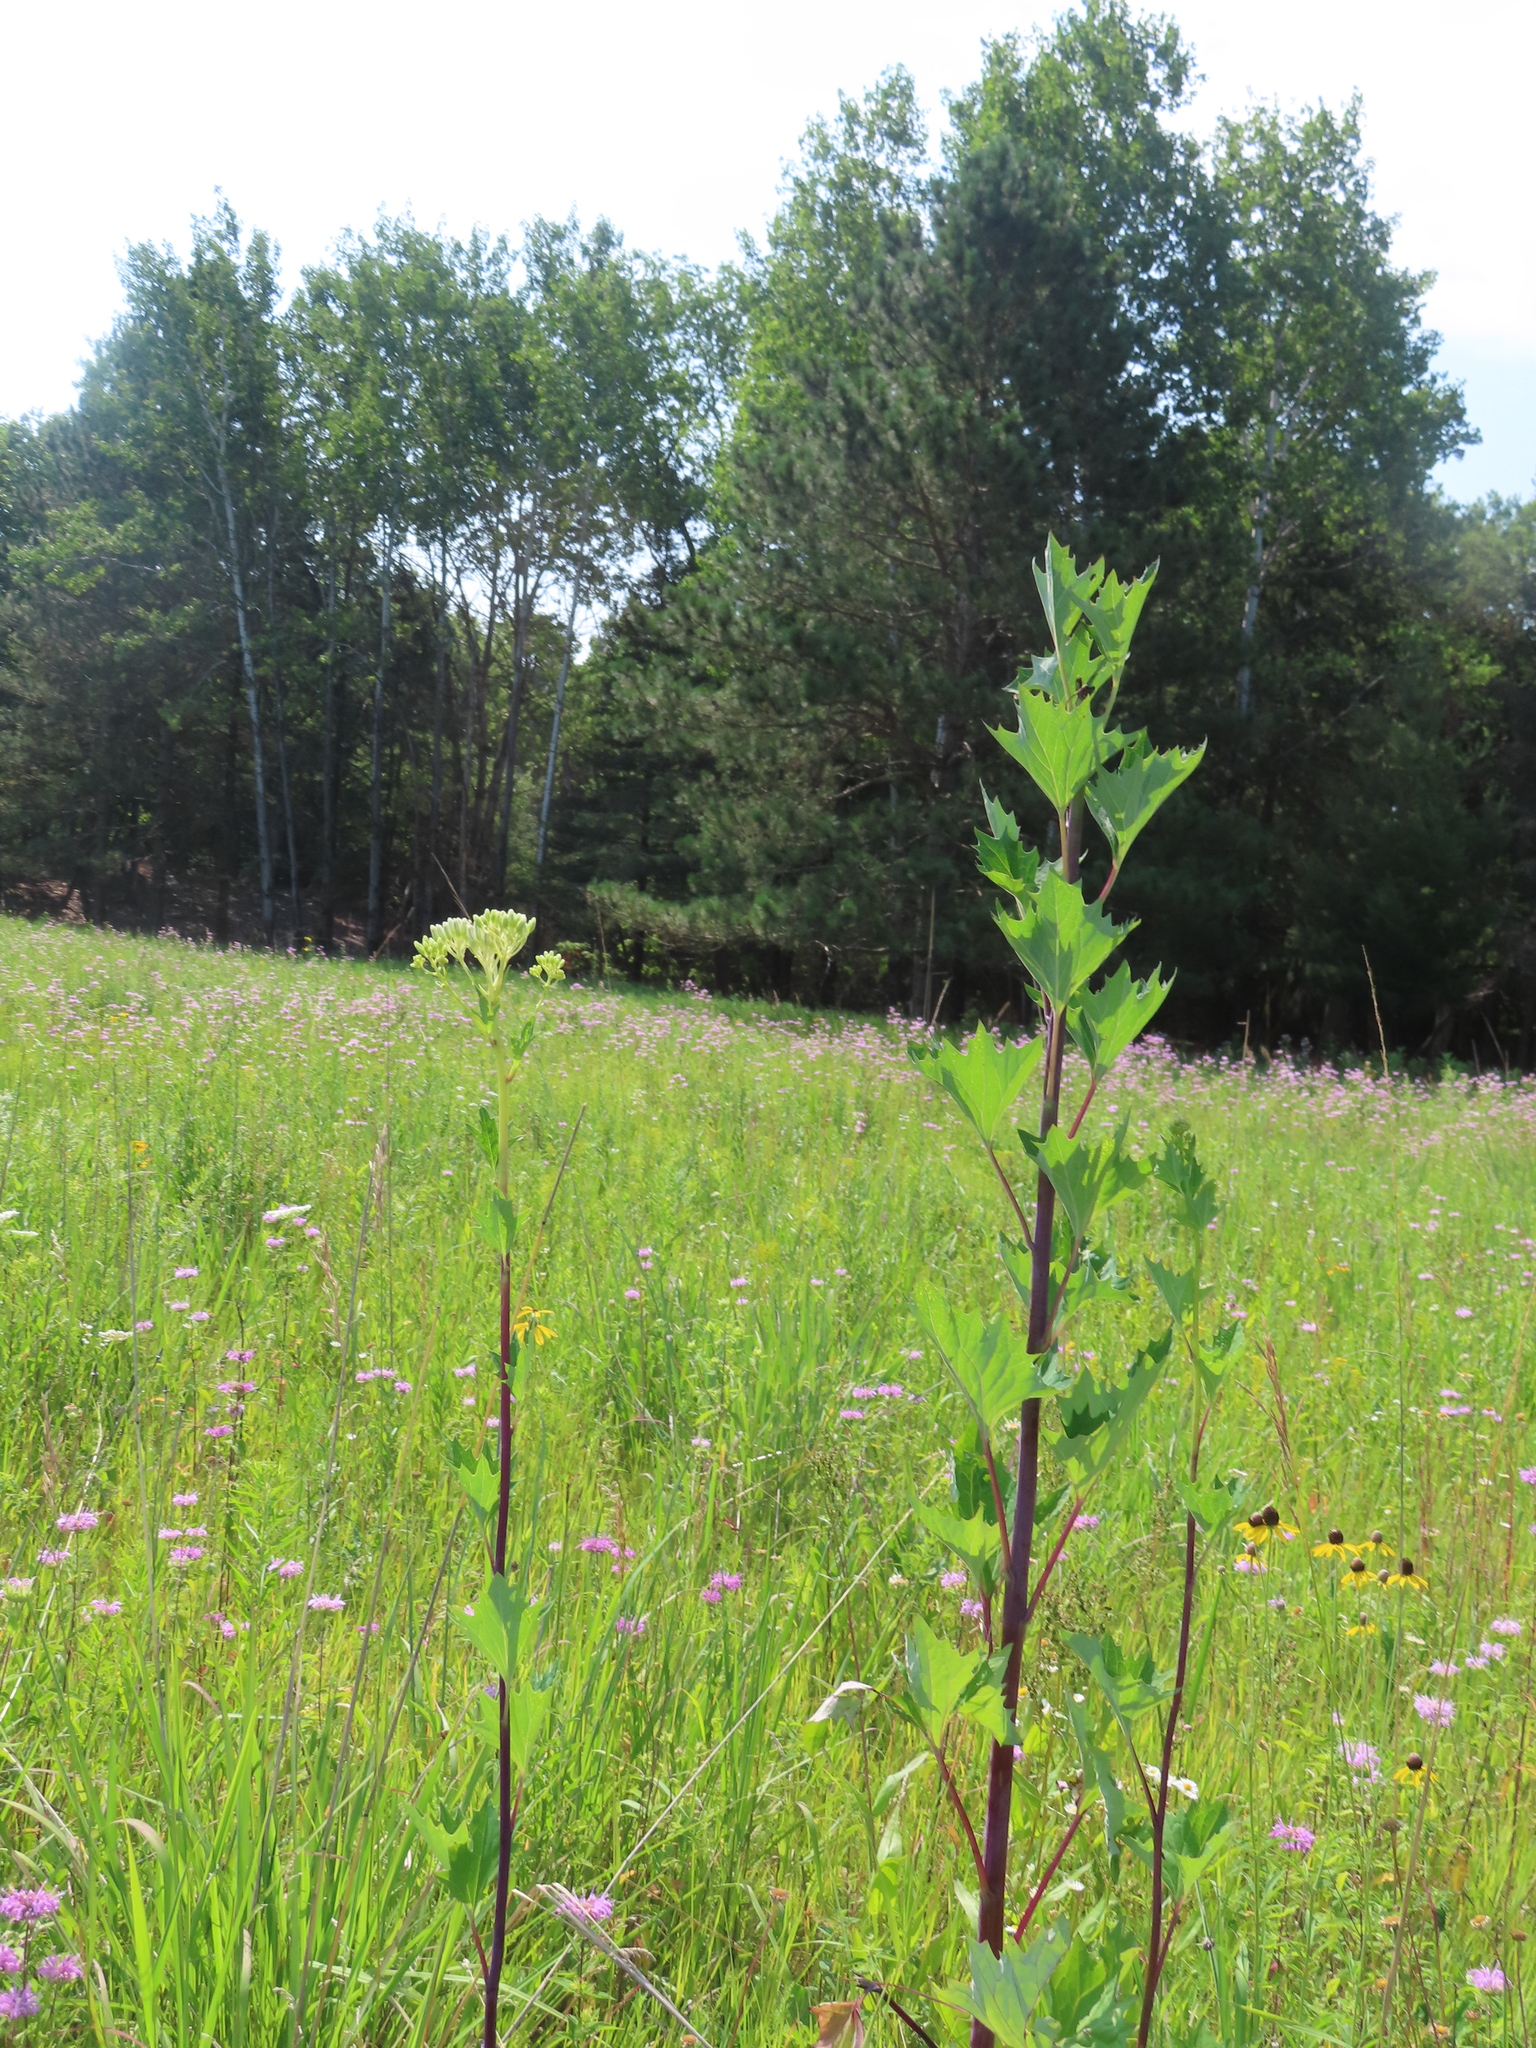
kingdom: Plantae
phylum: Tracheophyta
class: Magnoliopsida
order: Asterales
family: Asteraceae
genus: Arnoglossum
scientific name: Arnoglossum atriplicifolium
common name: Pale indian-plantain
